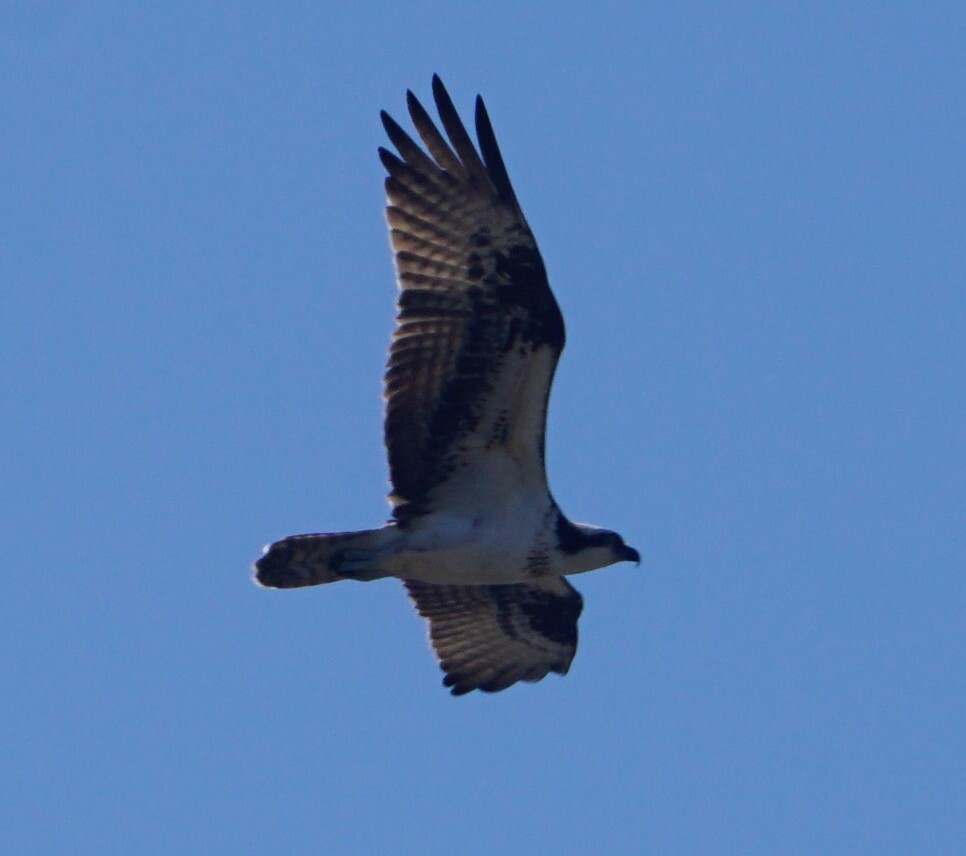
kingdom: Animalia
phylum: Chordata
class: Aves
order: Accipitriformes
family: Pandionidae
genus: Pandion
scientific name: Pandion haliaetus
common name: Osprey
